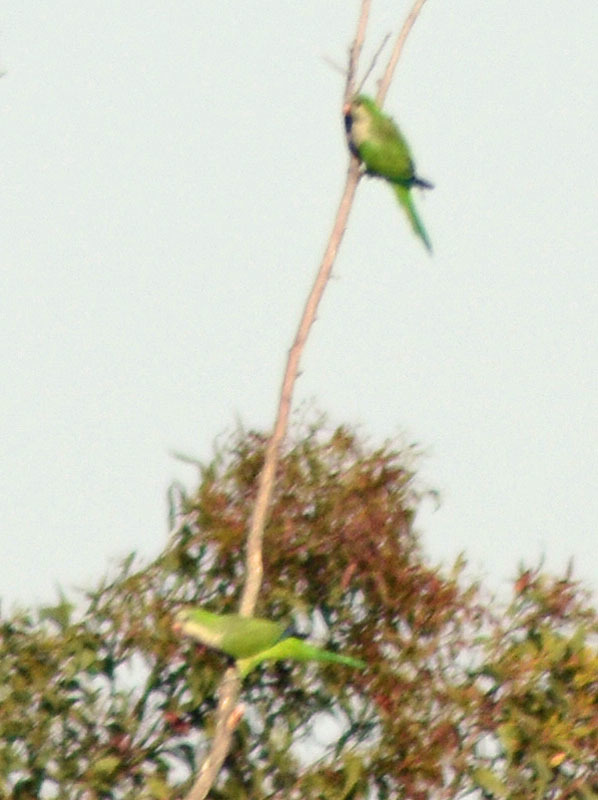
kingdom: Animalia
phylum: Chordata
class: Aves
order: Psittaciformes
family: Psittacidae
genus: Myiopsitta
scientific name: Myiopsitta monachus
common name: Monk parakeet
